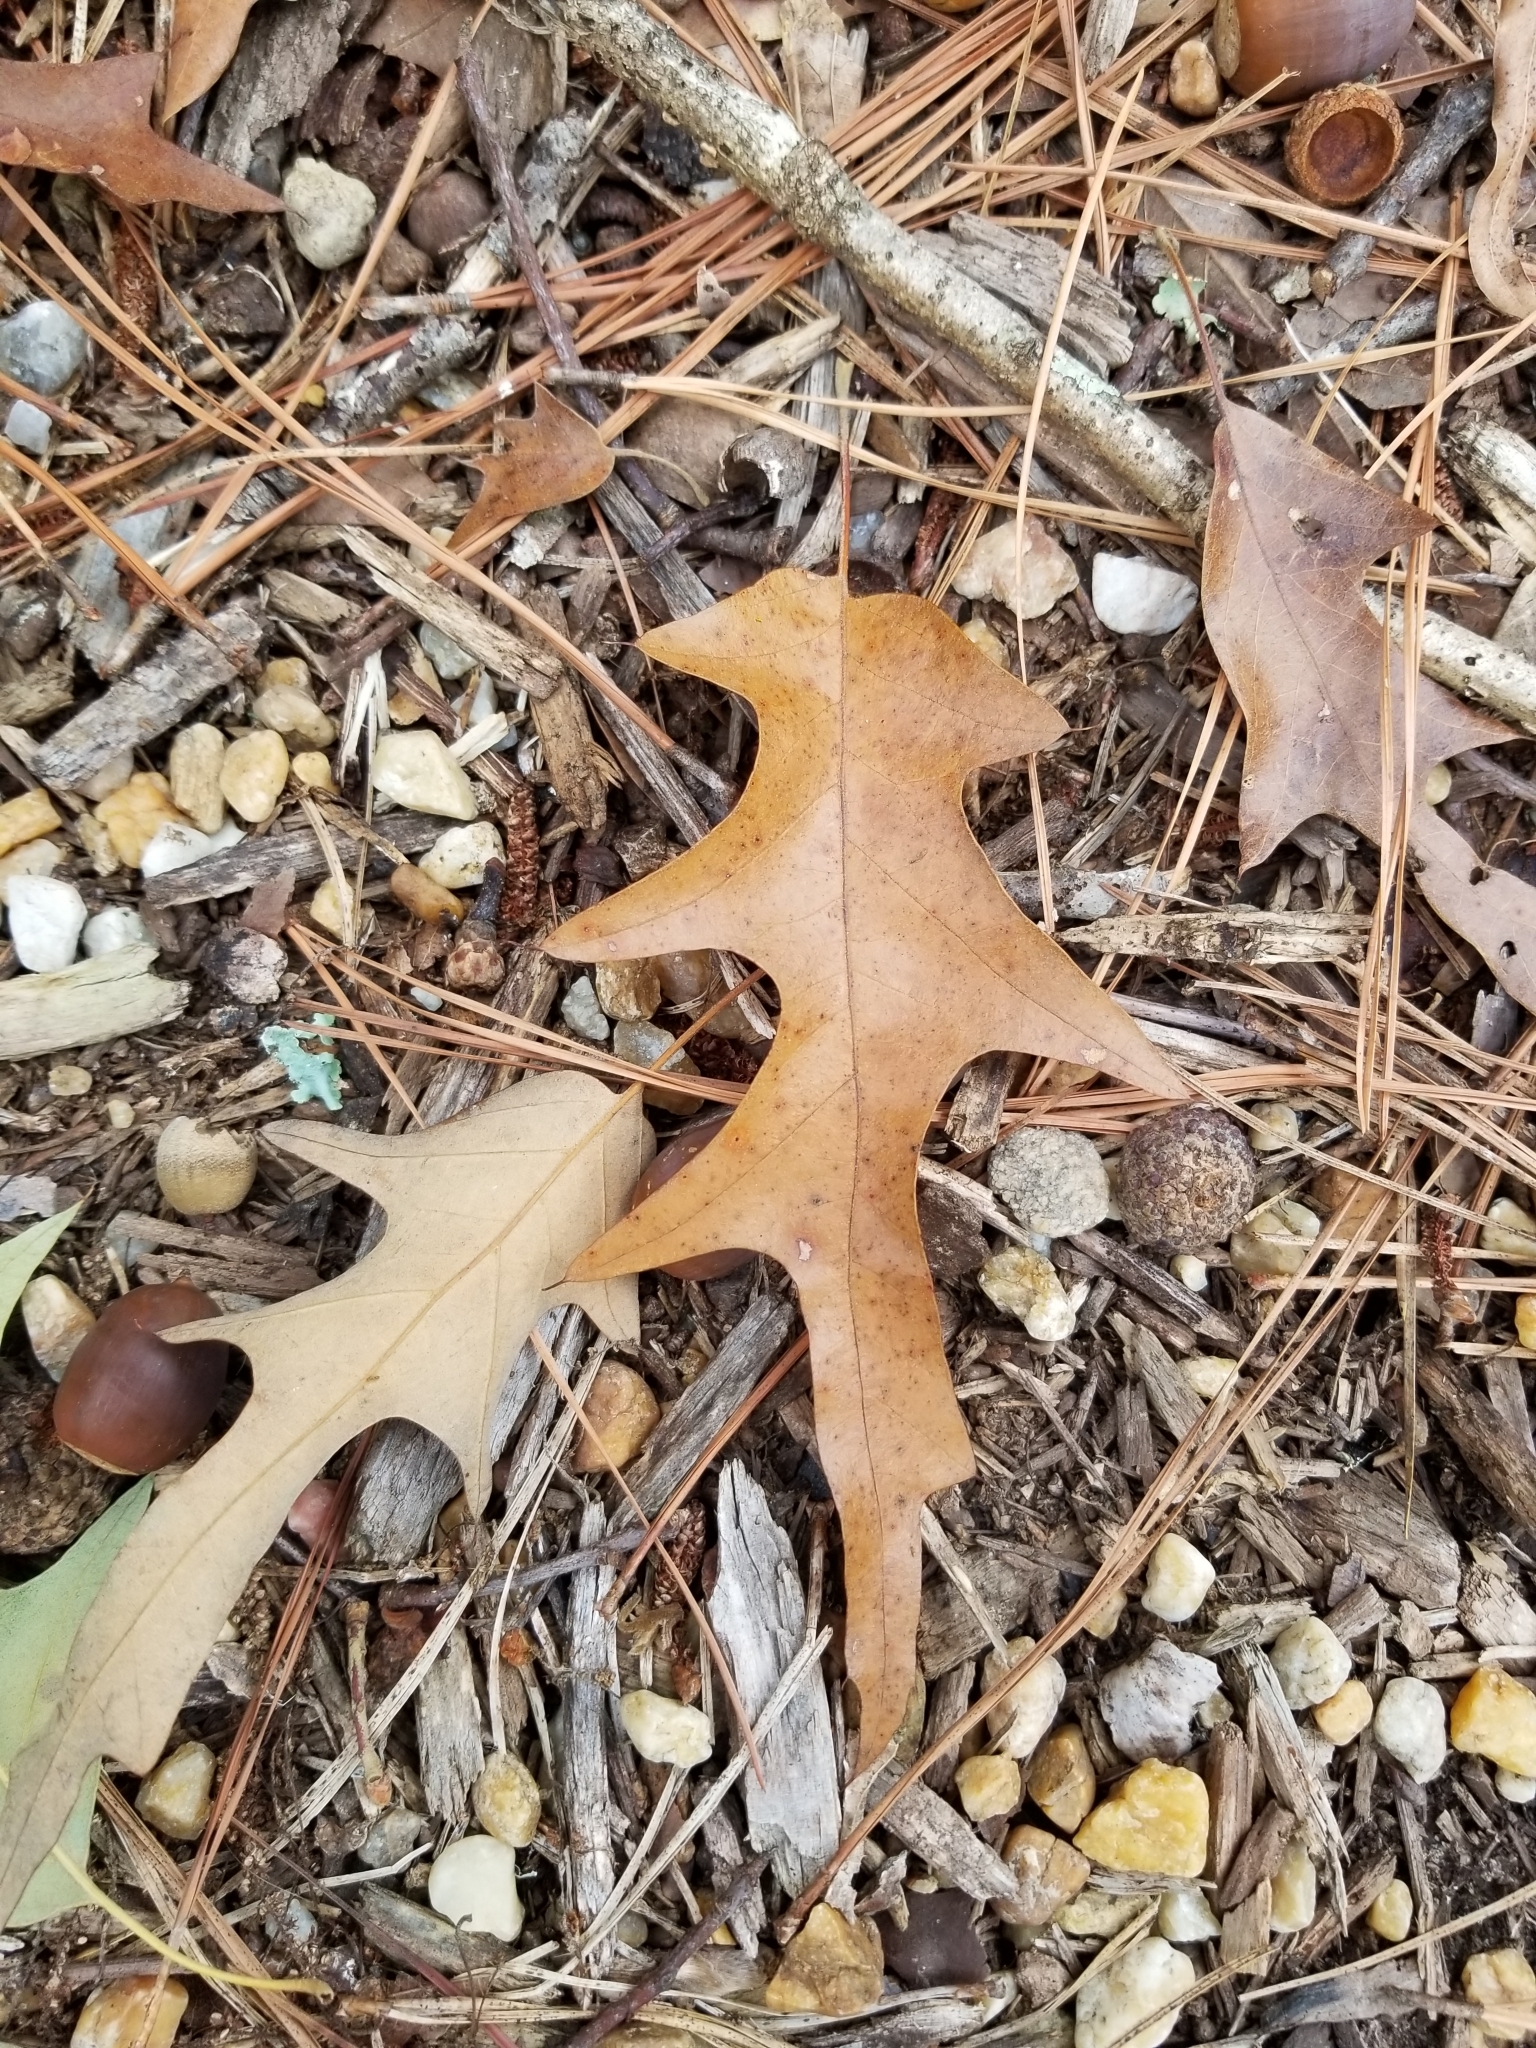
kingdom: Plantae
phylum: Tracheophyta
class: Magnoliopsida
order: Fagales
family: Fagaceae
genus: Quercus
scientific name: Quercus falcata
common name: Southern red oak
